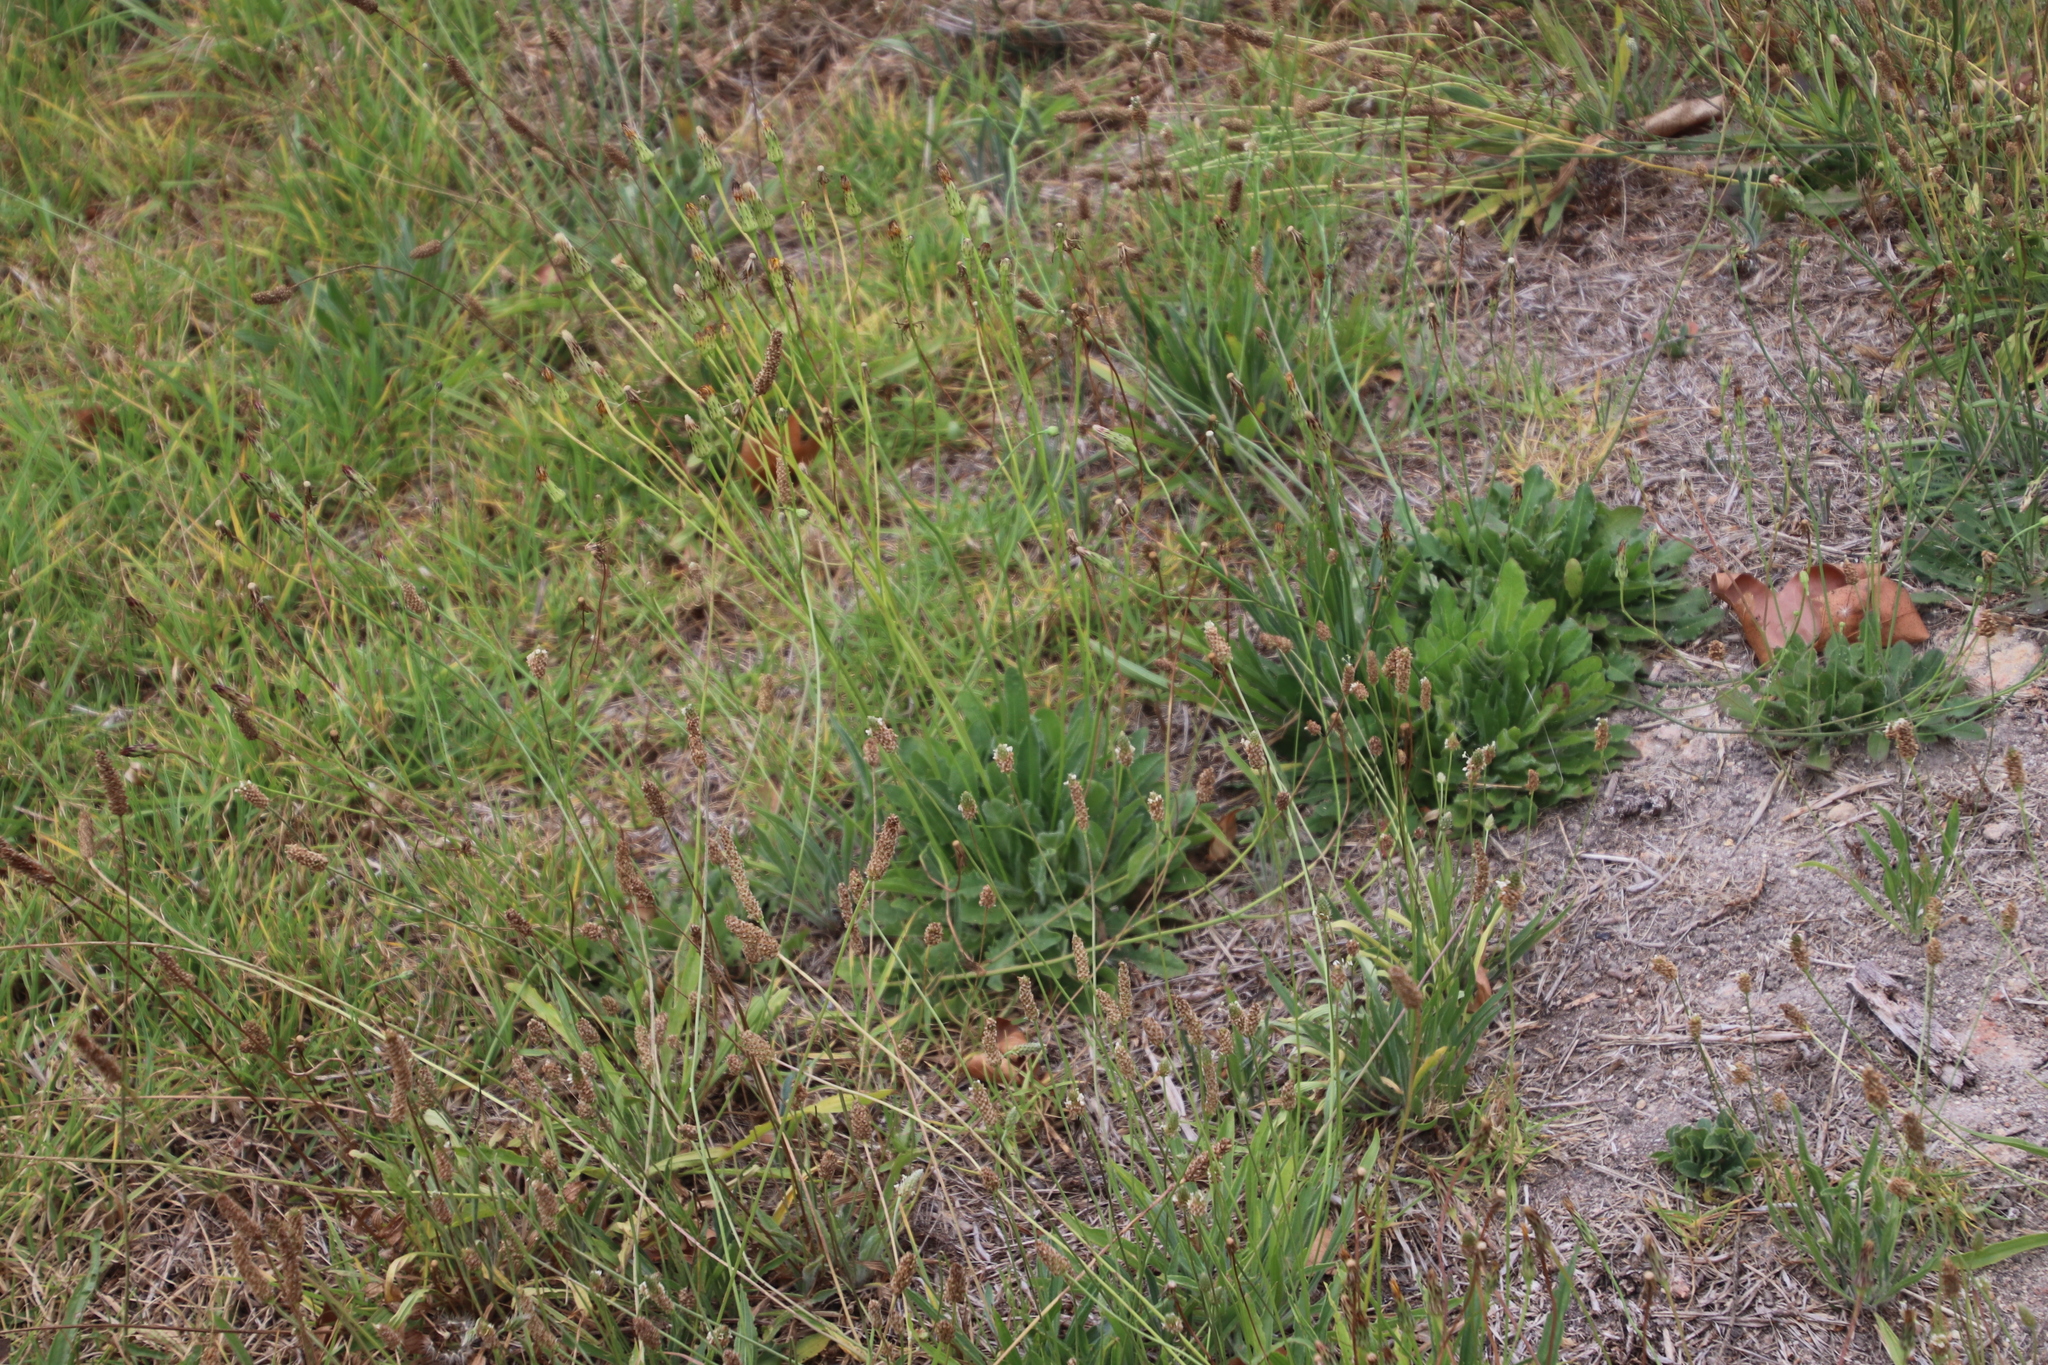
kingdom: Plantae
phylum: Tracheophyta
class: Magnoliopsida
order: Lamiales
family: Plantaginaceae
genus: Plantago
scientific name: Plantago lanceolata
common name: Ribwort plantain
